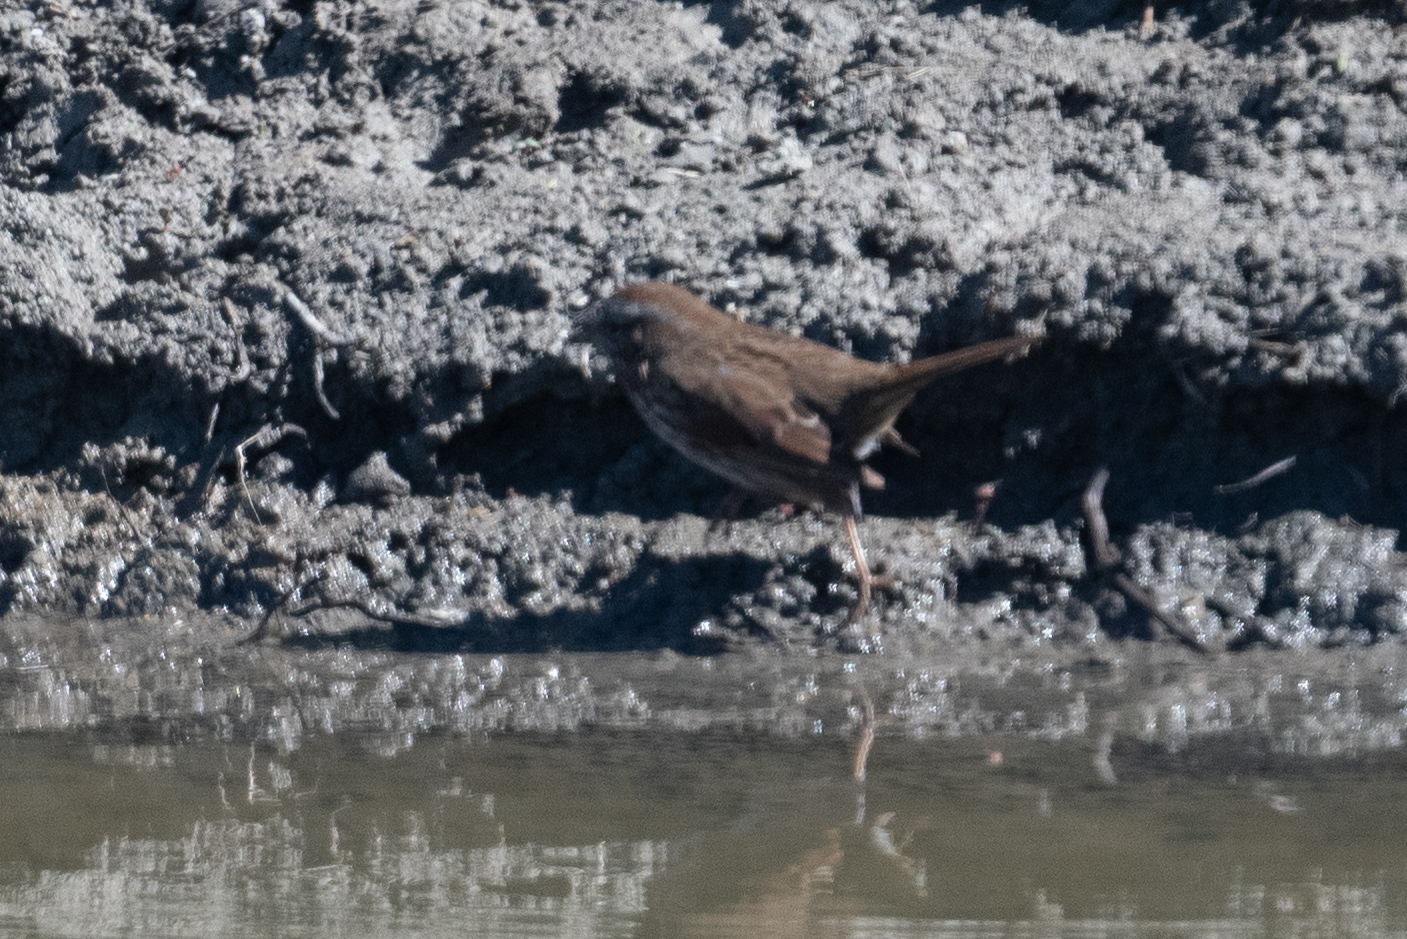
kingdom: Animalia
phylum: Chordata
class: Aves
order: Passeriformes
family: Passerellidae
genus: Melospiza
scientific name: Melospiza melodia
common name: Song sparrow
